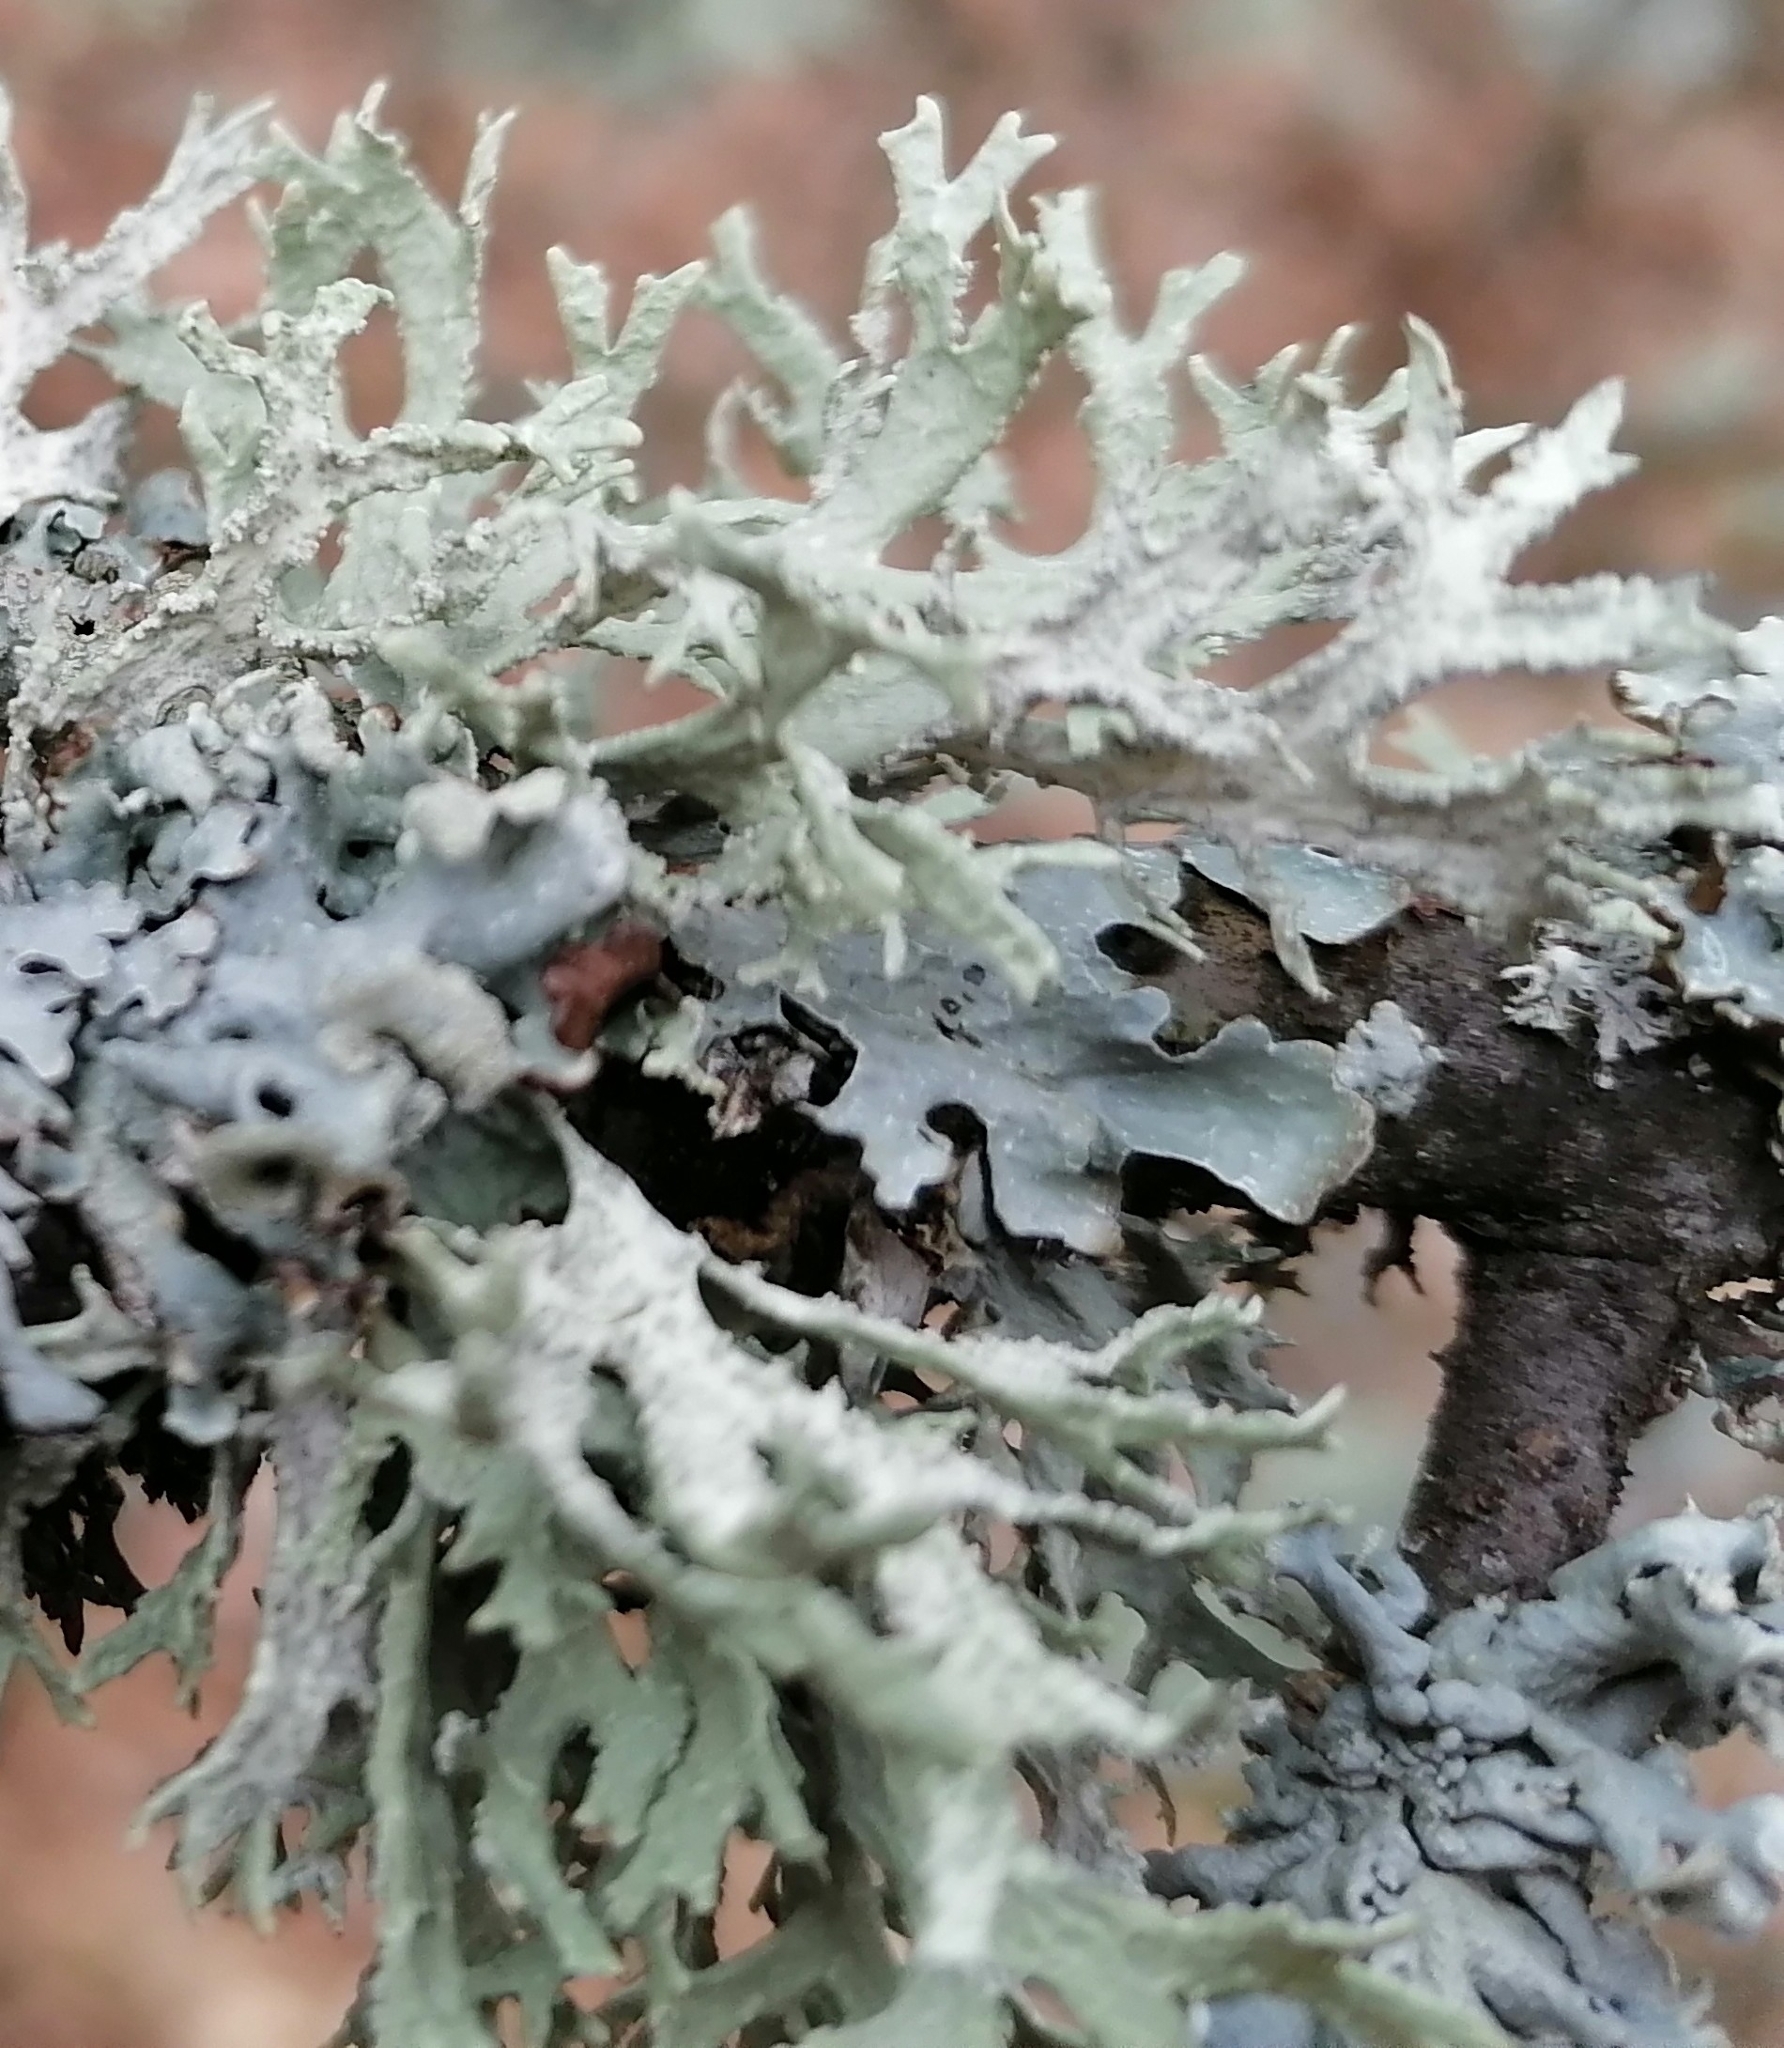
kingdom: Fungi
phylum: Ascomycota
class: Lecanoromycetes
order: Lecanorales
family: Parmeliaceae
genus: Evernia
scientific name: Evernia prunastri
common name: Oak moss
